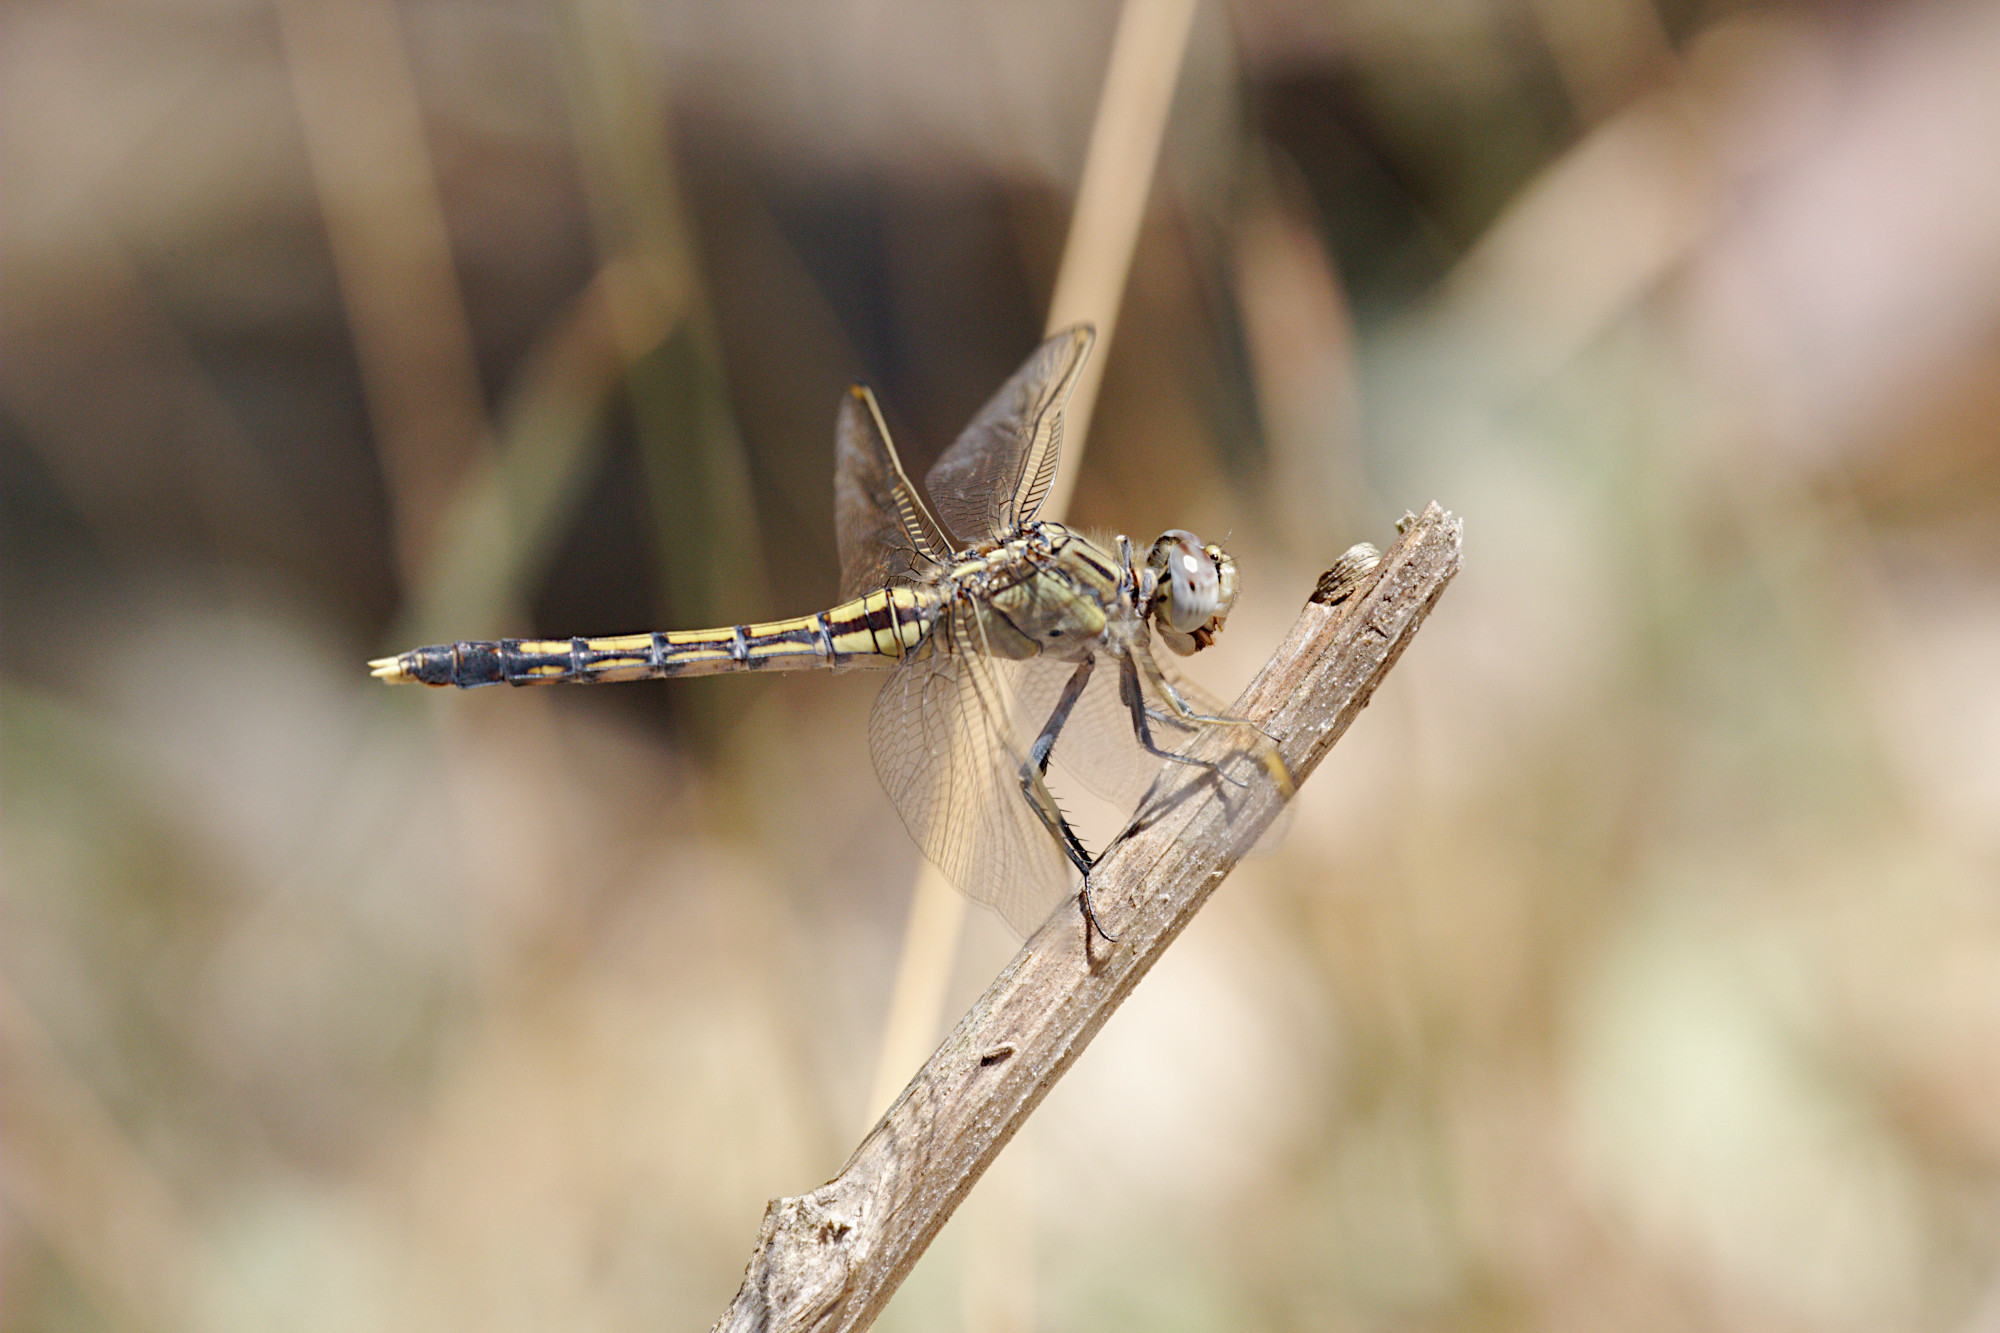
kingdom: Animalia
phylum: Arthropoda
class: Insecta
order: Odonata
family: Libellulidae
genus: Orthetrum
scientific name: Orthetrum caledonicum
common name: Blue skimmer
